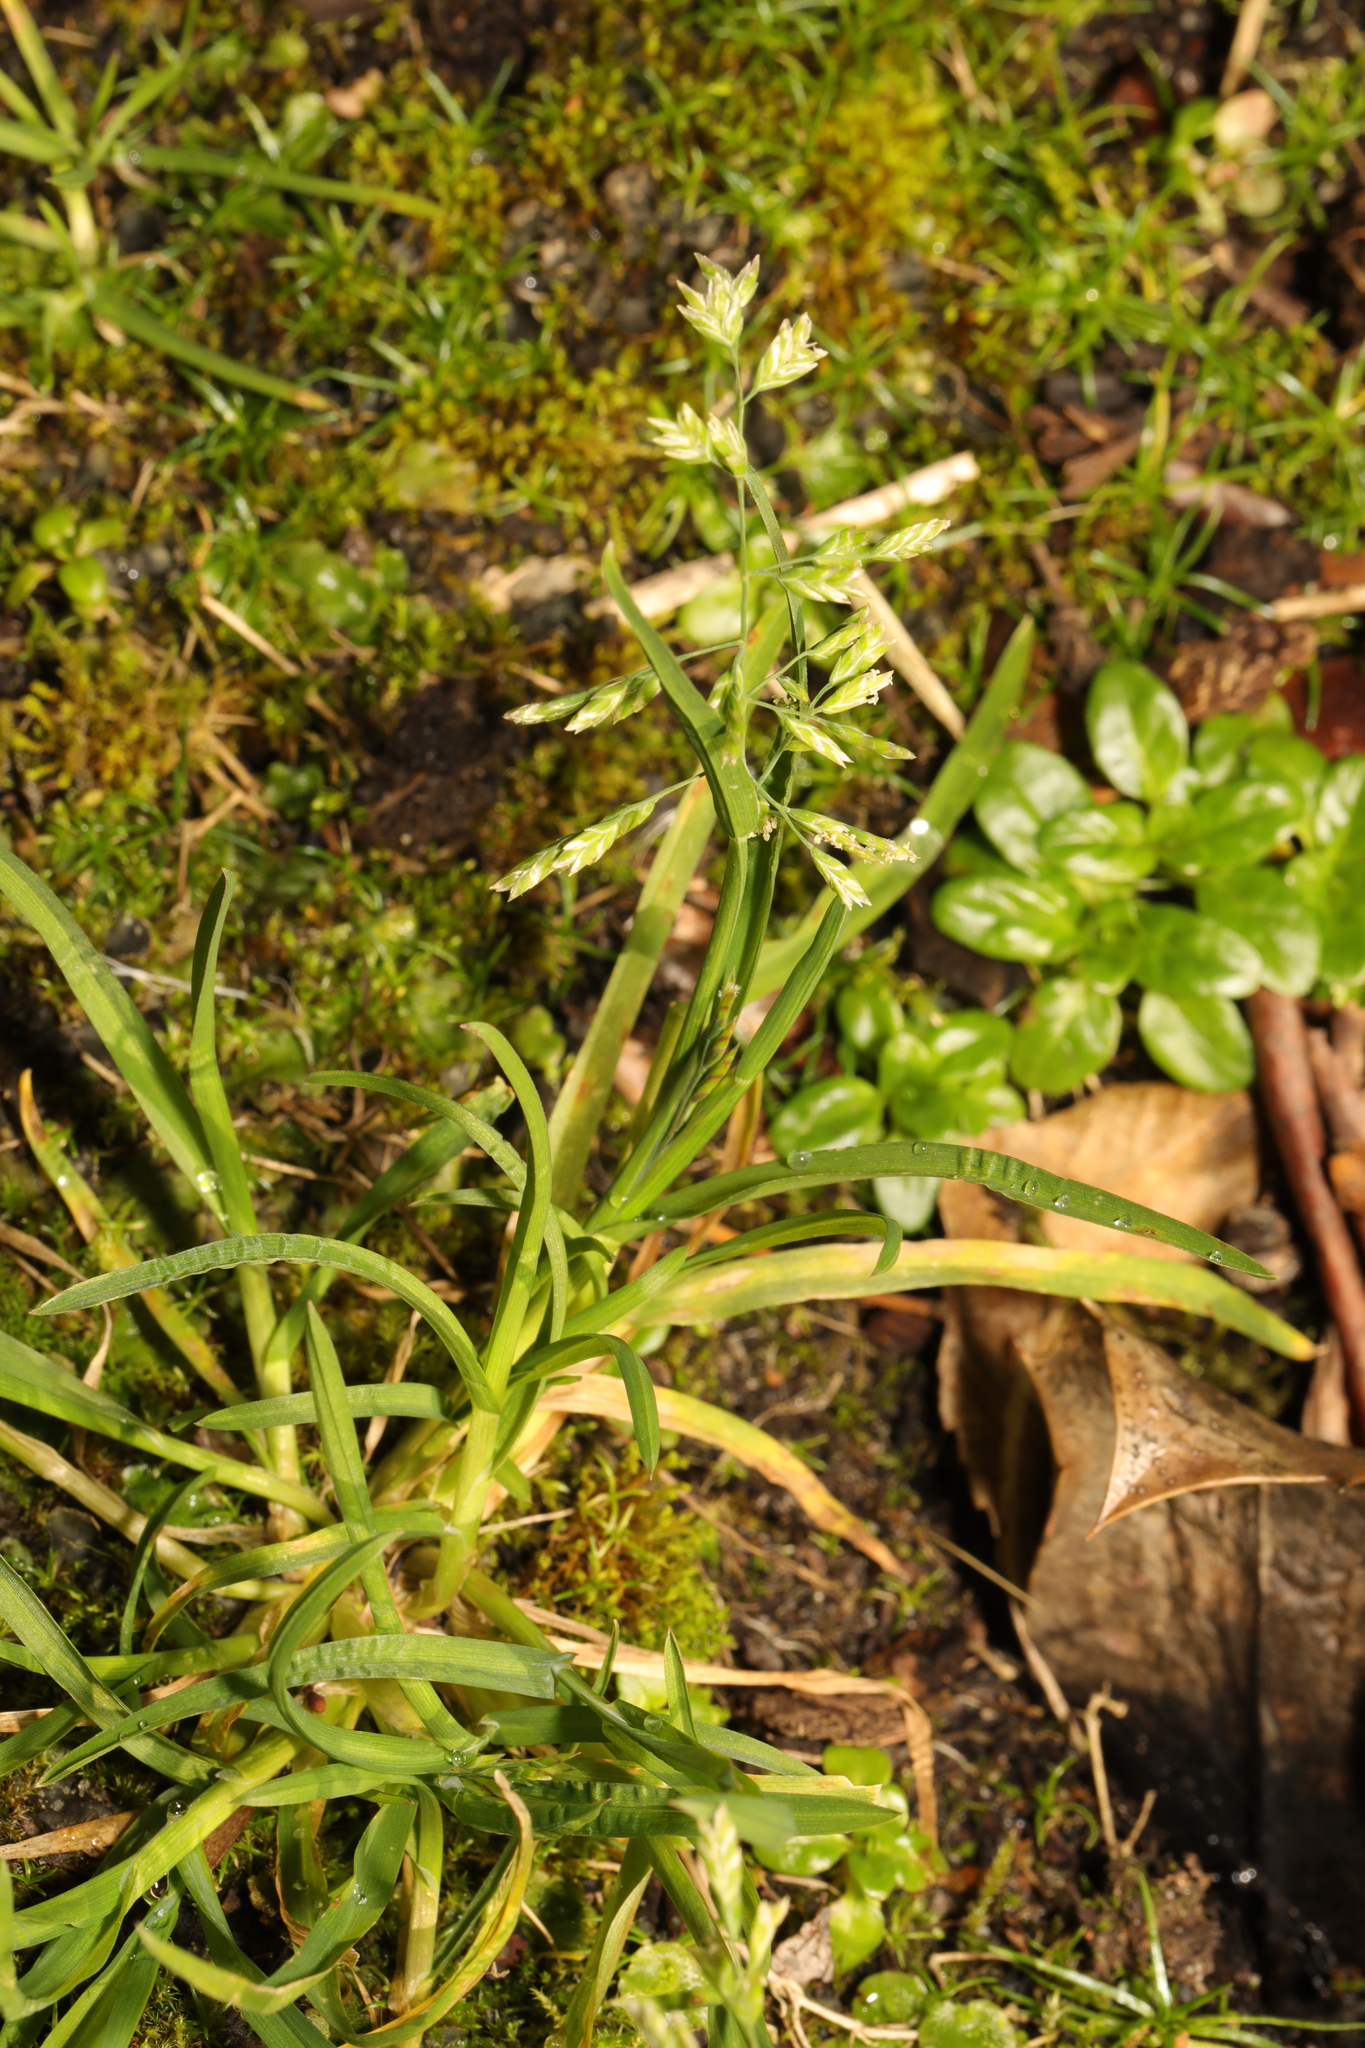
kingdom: Plantae
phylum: Tracheophyta
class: Liliopsida
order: Poales
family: Poaceae
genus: Poa
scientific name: Poa annua
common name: Annual bluegrass
